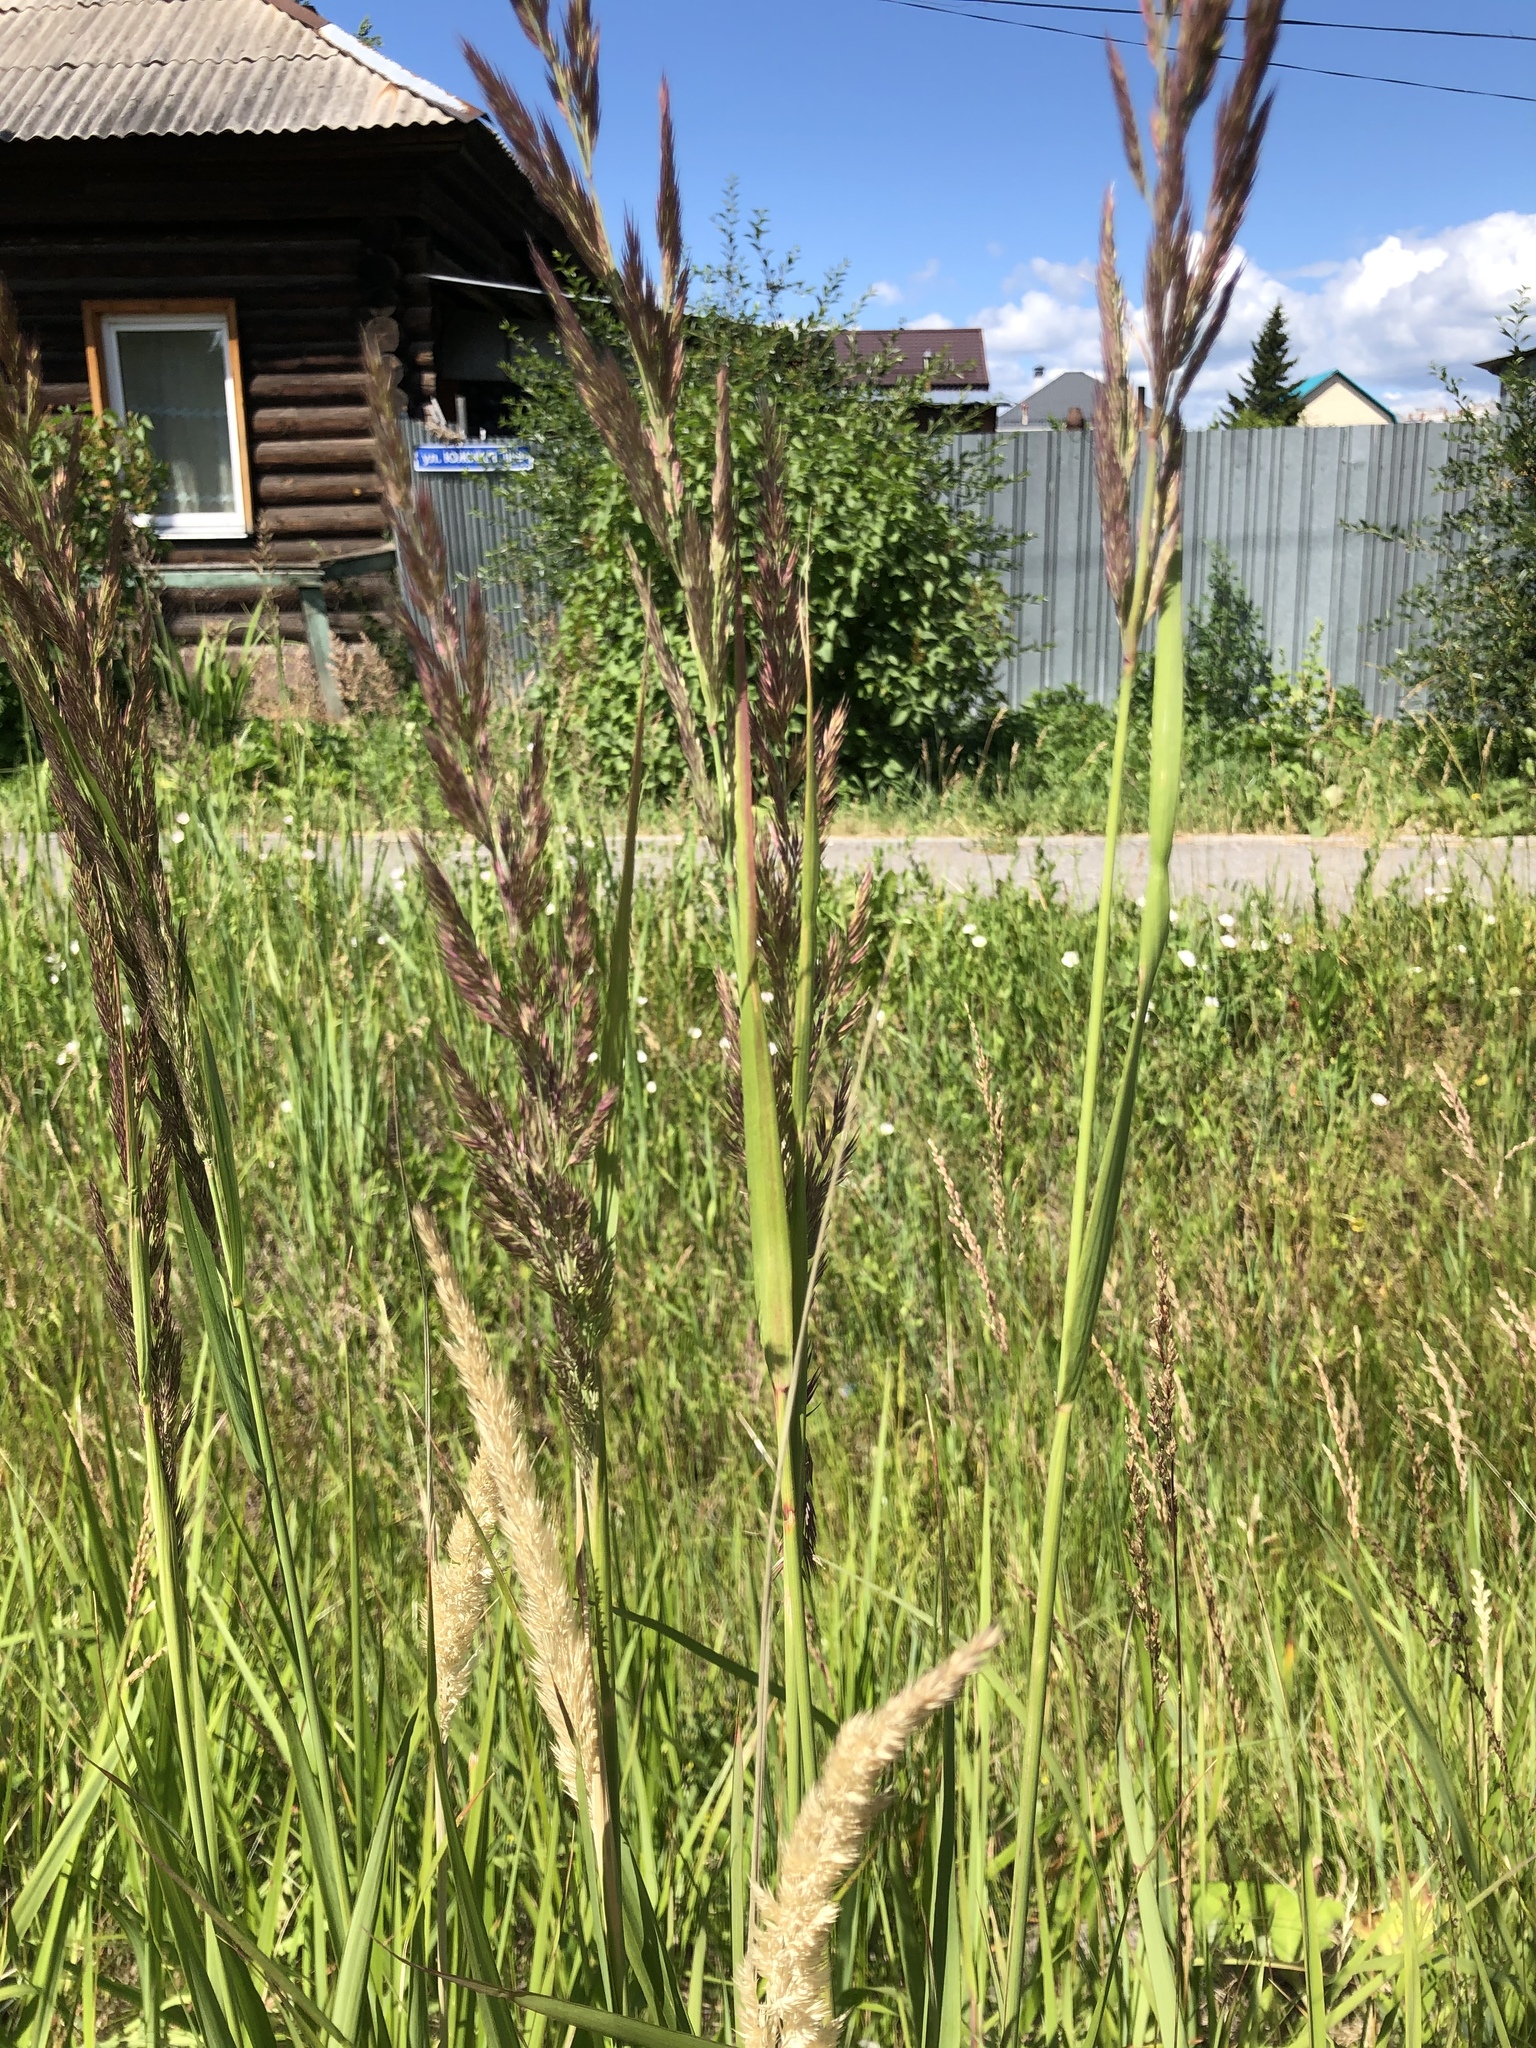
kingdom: Plantae
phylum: Tracheophyta
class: Liliopsida
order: Poales
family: Poaceae
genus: Calamagrostis
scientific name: Calamagrostis epigejos
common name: Wood small-reed
